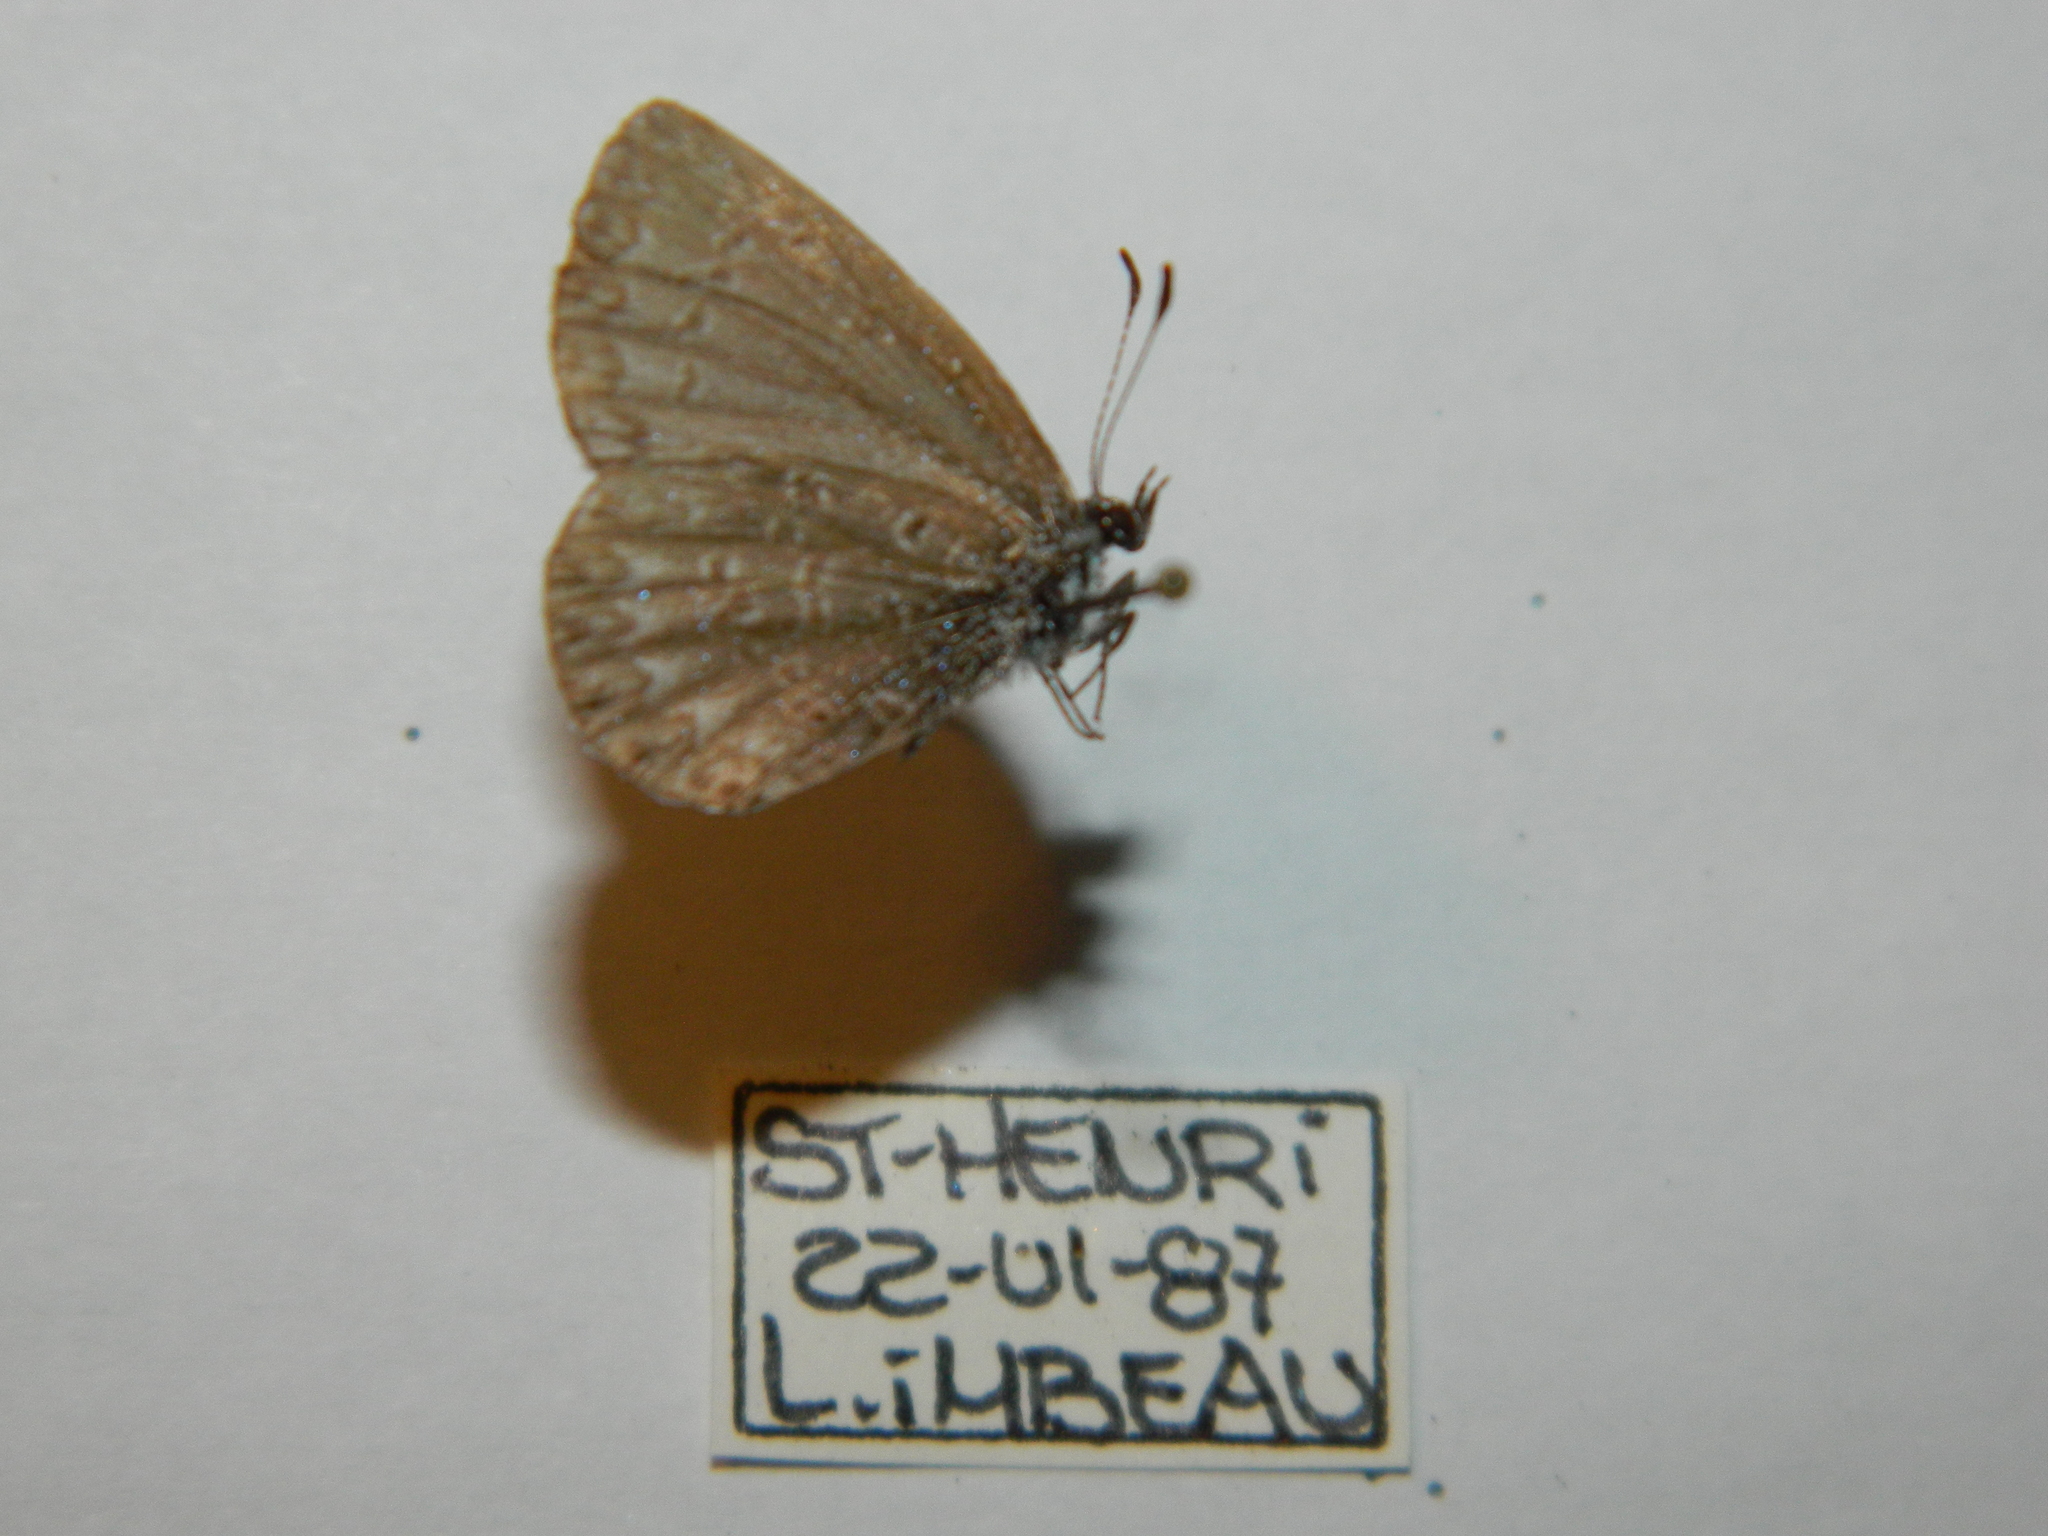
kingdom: Animalia
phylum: Arthropoda
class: Insecta
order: Lepidoptera
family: Lycaenidae
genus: Celastrina
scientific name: Celastrina lucia
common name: Lucia azure
